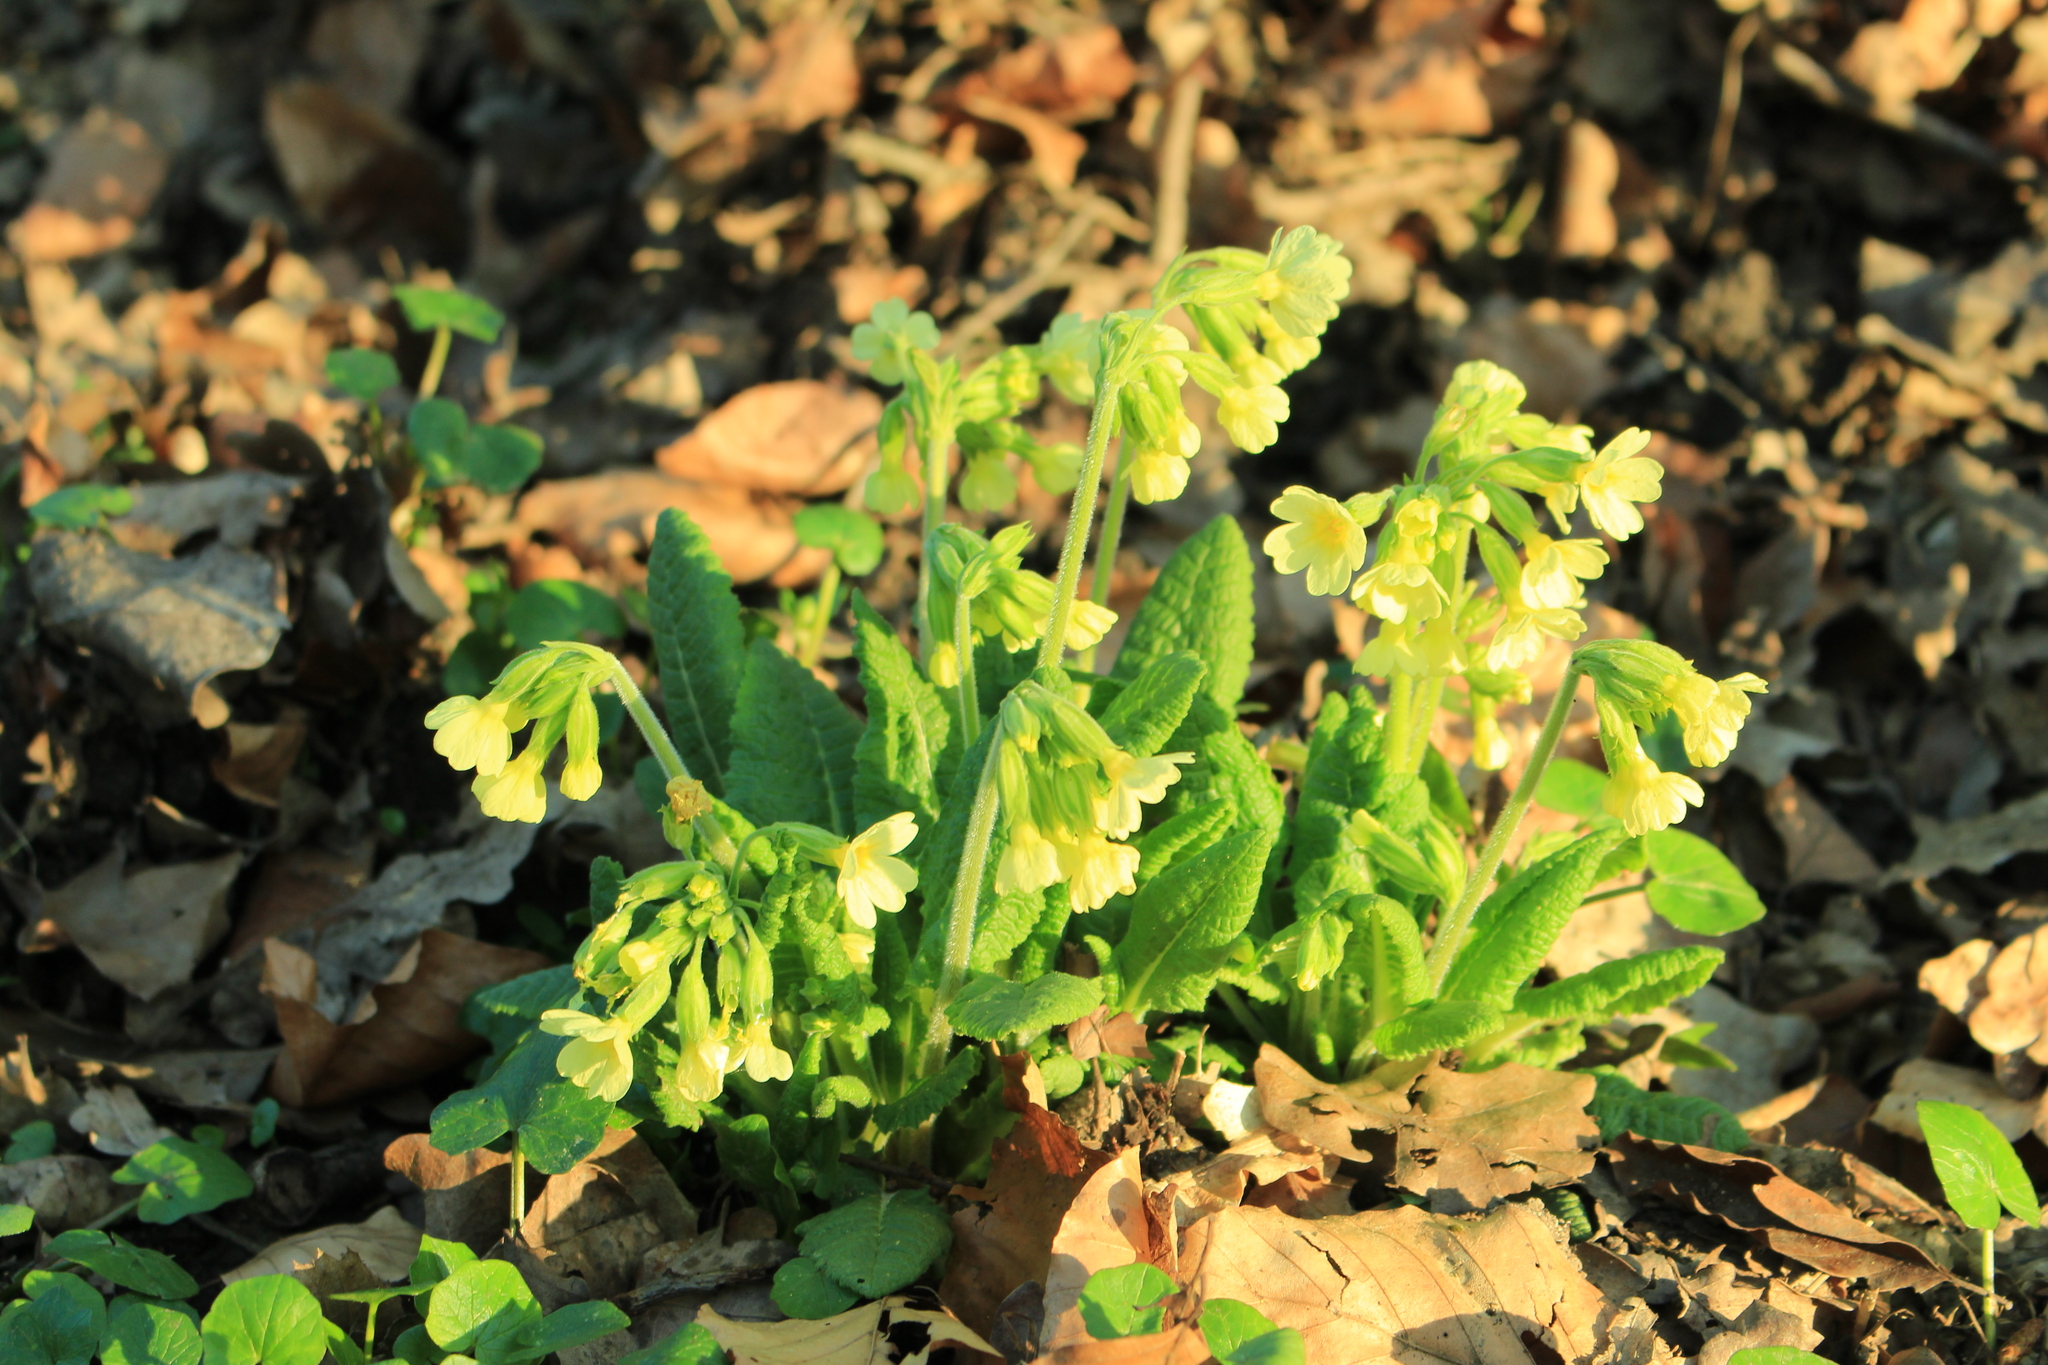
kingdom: Plantae
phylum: Tracheophyta
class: Magnoliopsida
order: Ericales
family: Primulaceae
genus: Primula
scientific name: Primula elatior
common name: Oxlip
